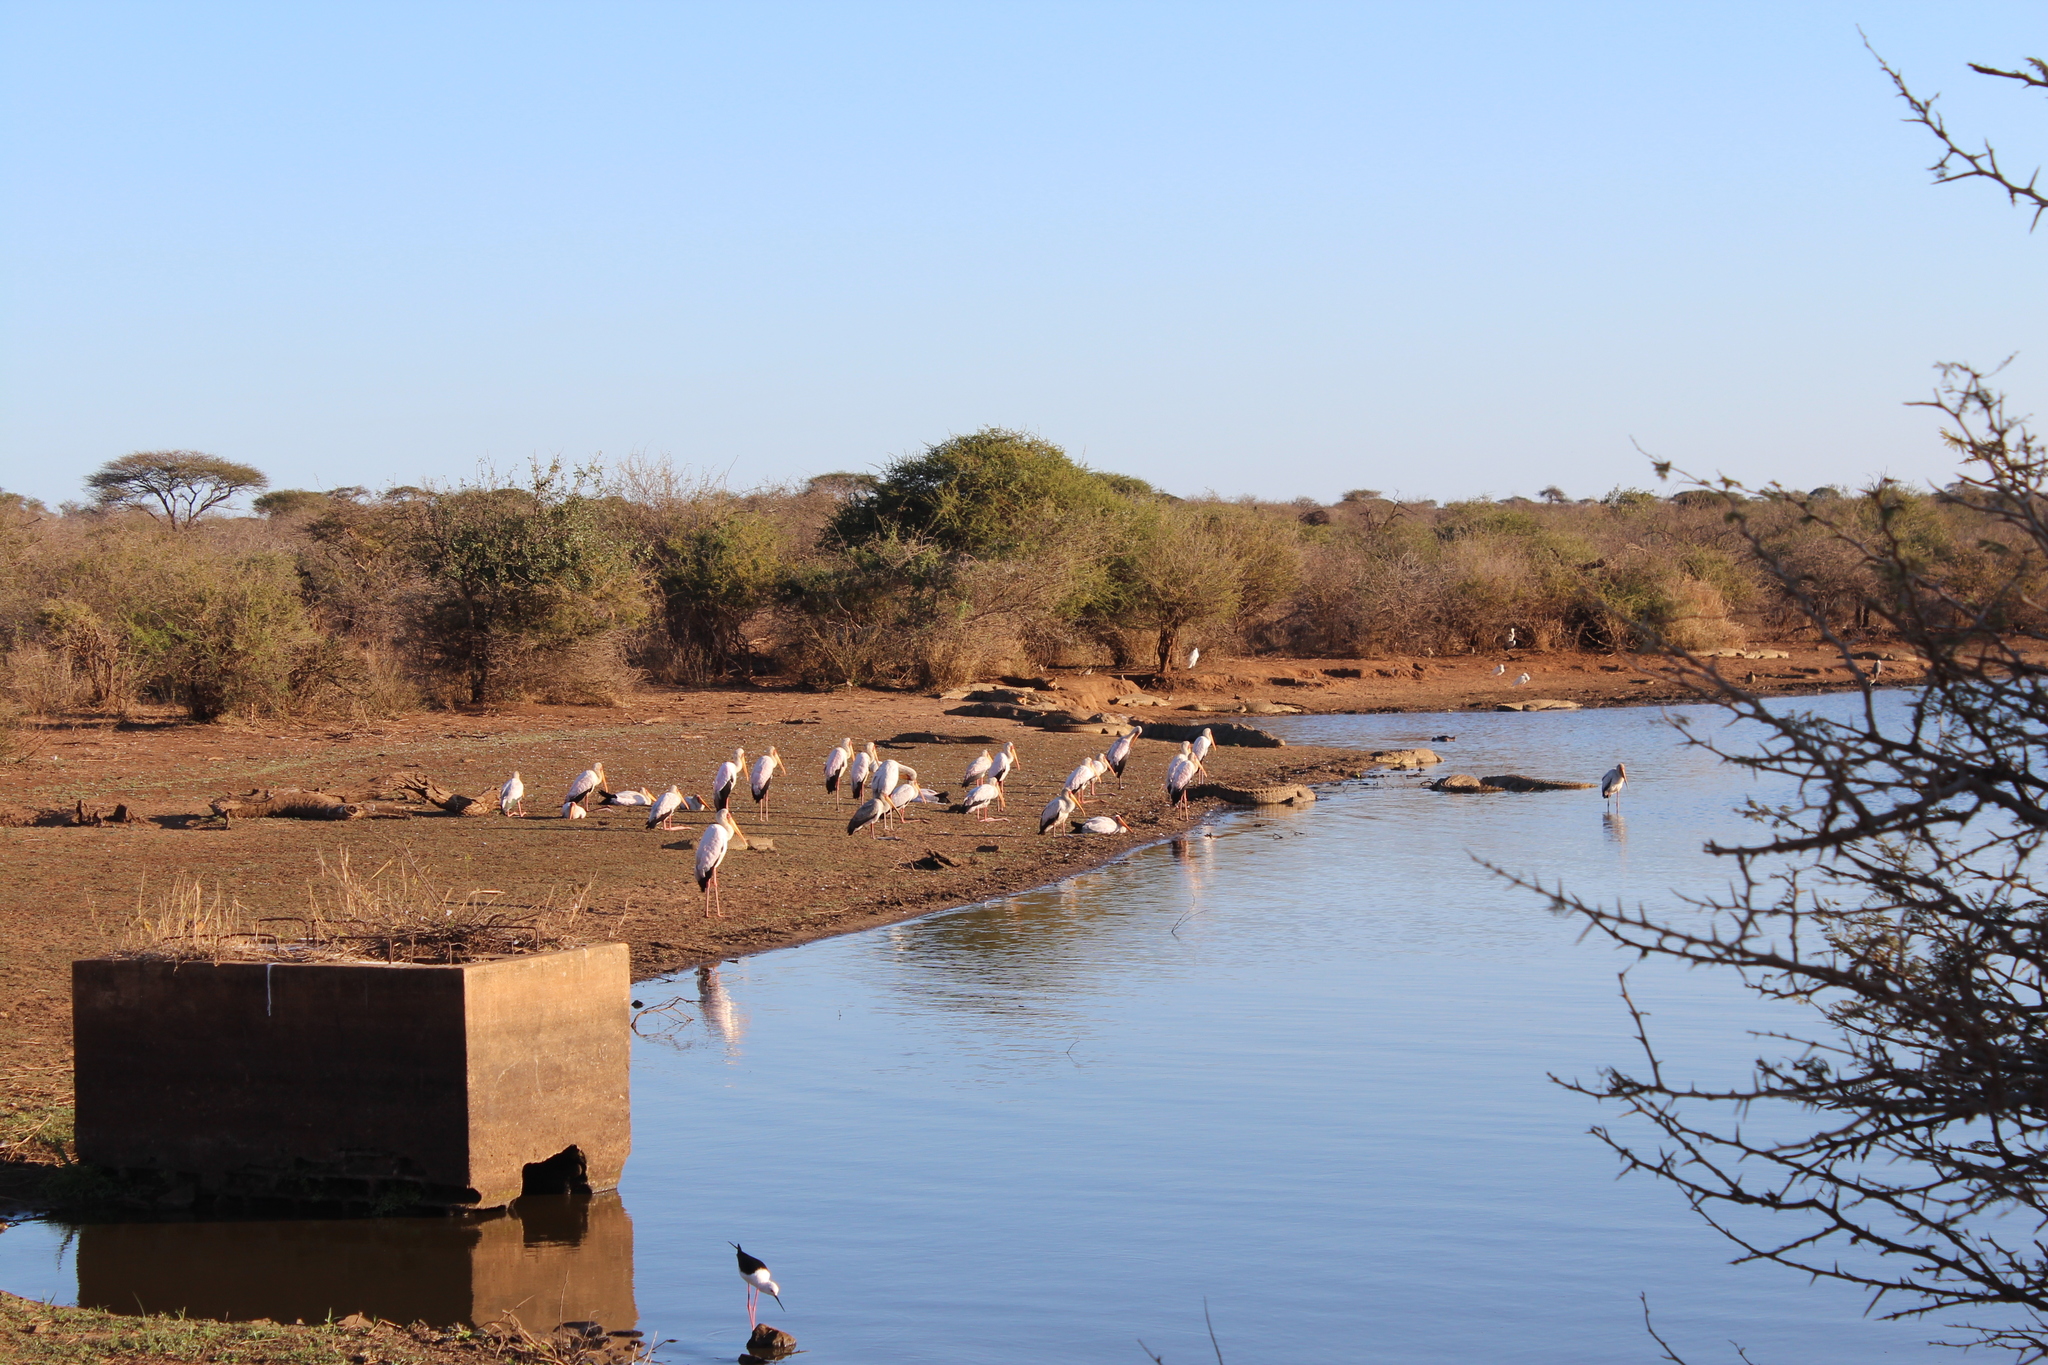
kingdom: Animalia
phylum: Chordata
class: Aves
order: Ciconiiformes
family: Ciconiidae
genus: Mycteria
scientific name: Mycteria ibis
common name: Yellow-billed stork
